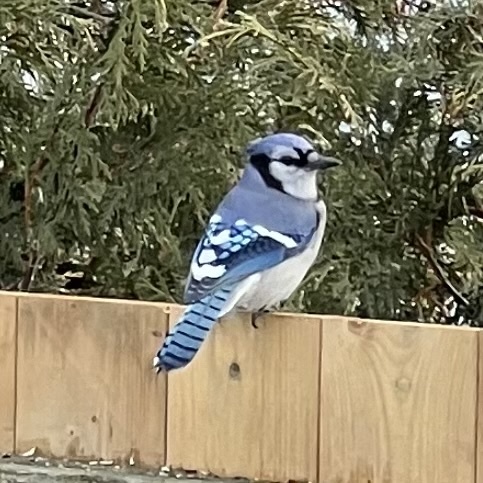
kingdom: Animalia
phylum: Chordata
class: Aves
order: Passeriformes
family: Corvidae
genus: Cyanocitta
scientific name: Cyanocitta cristata
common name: Blue jay
